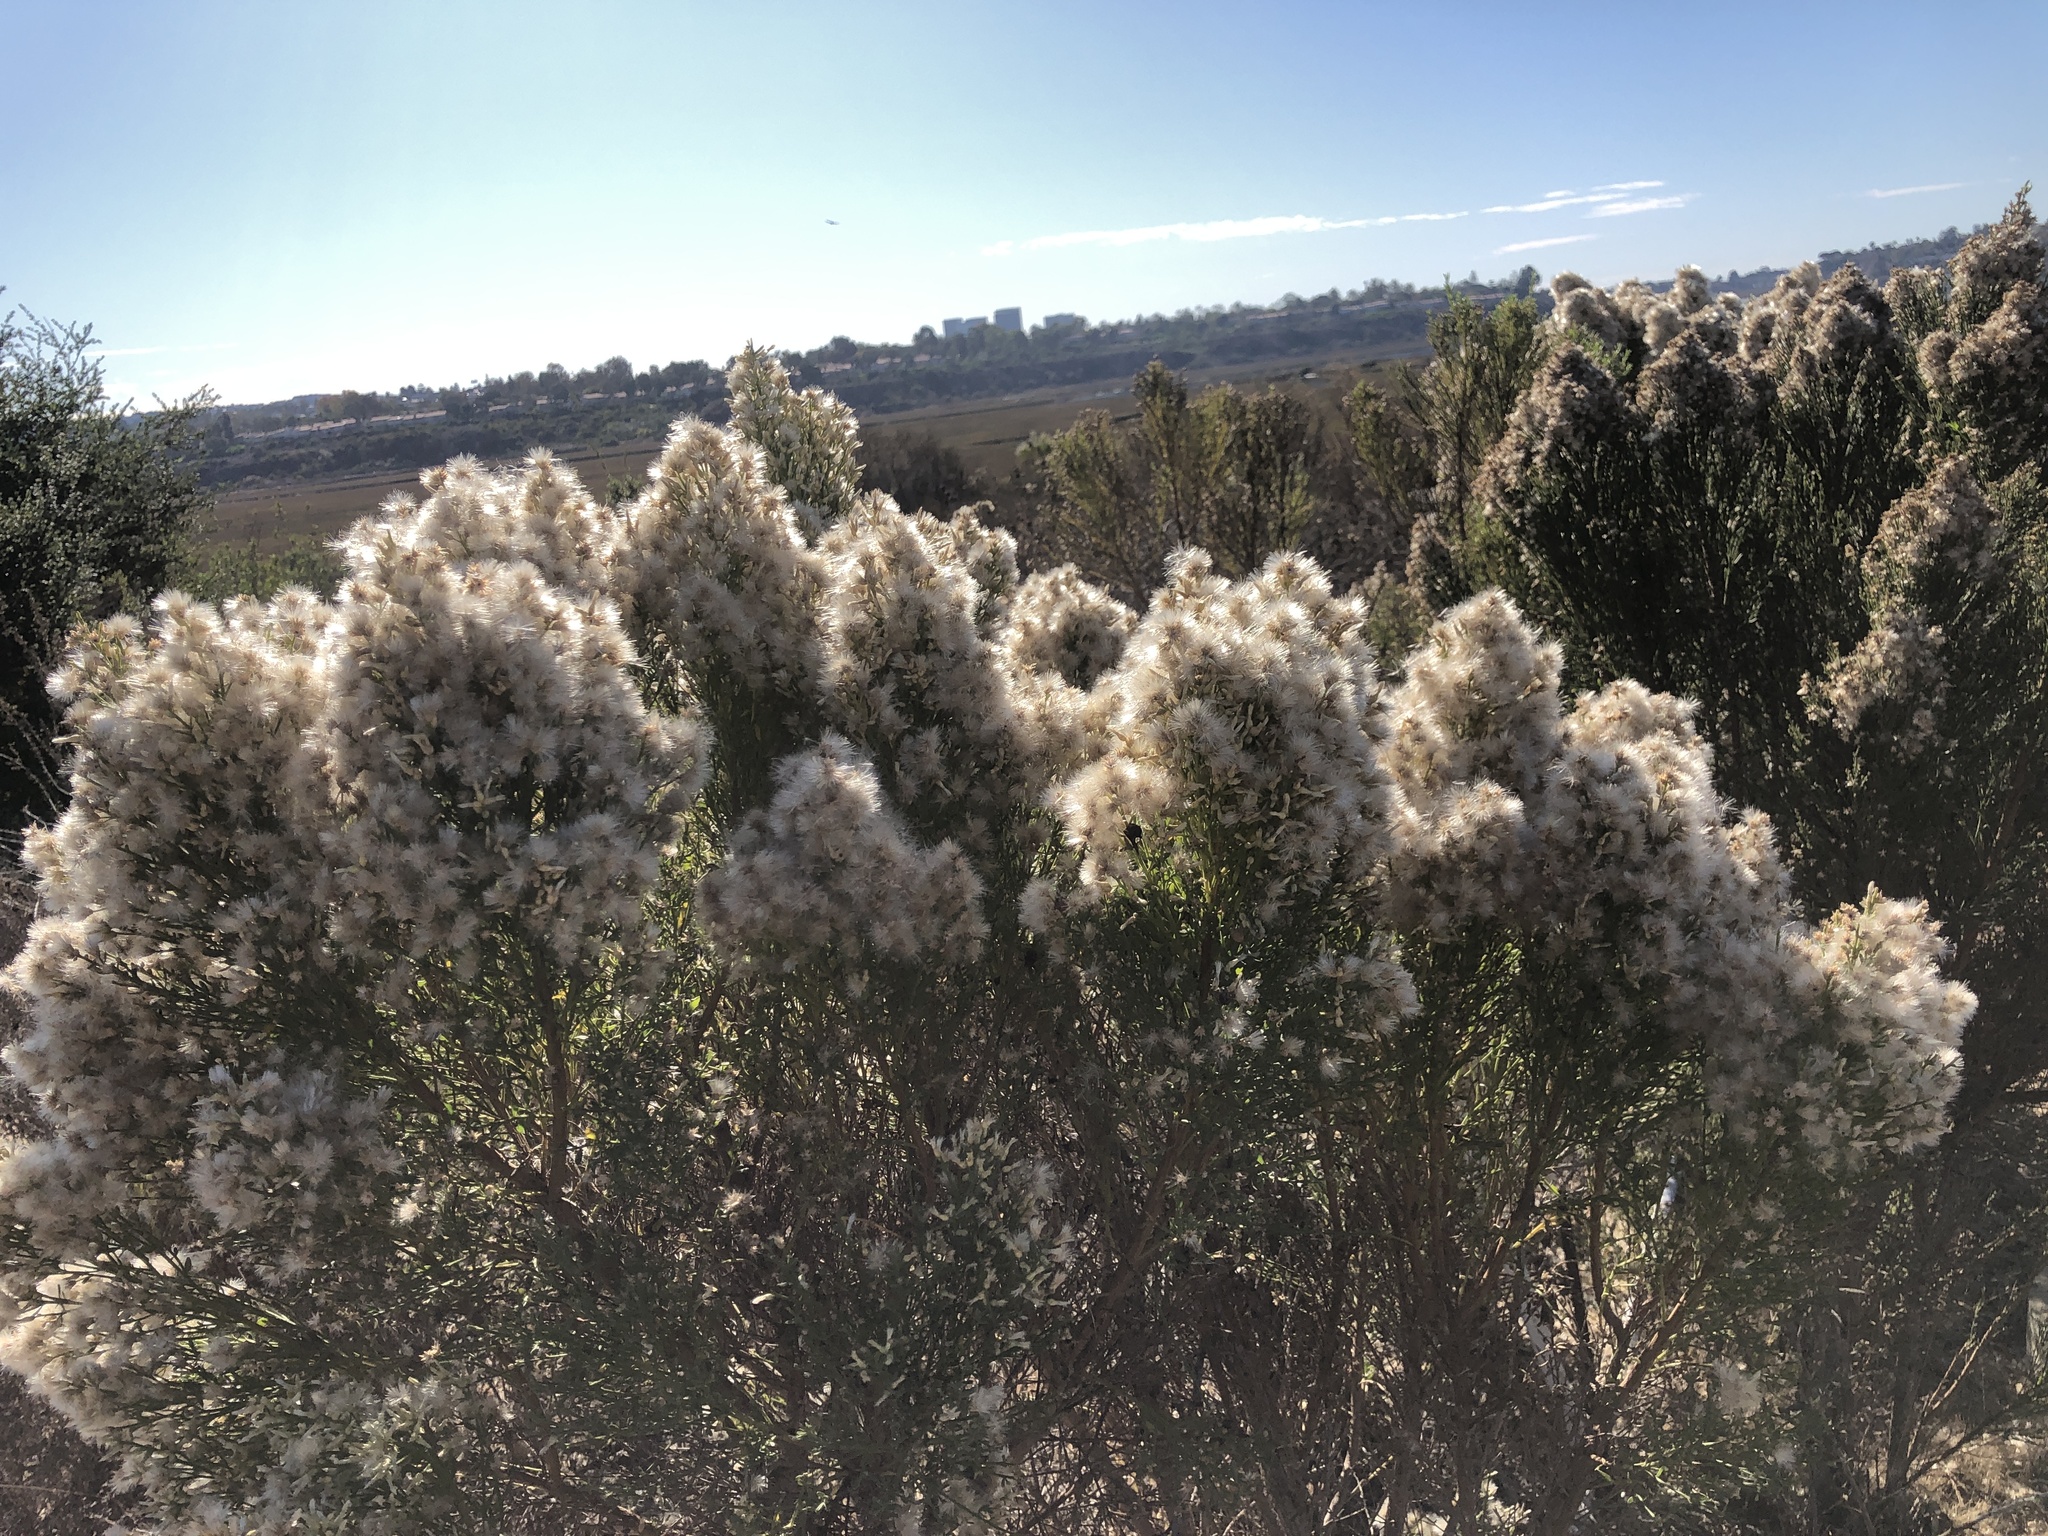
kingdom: Plantae
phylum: Tracheophyta
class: Magnoliopsida
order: Asterales
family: Asteraceae
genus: Baccharis
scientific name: Baccharis pilularis
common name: Coyotebrush
